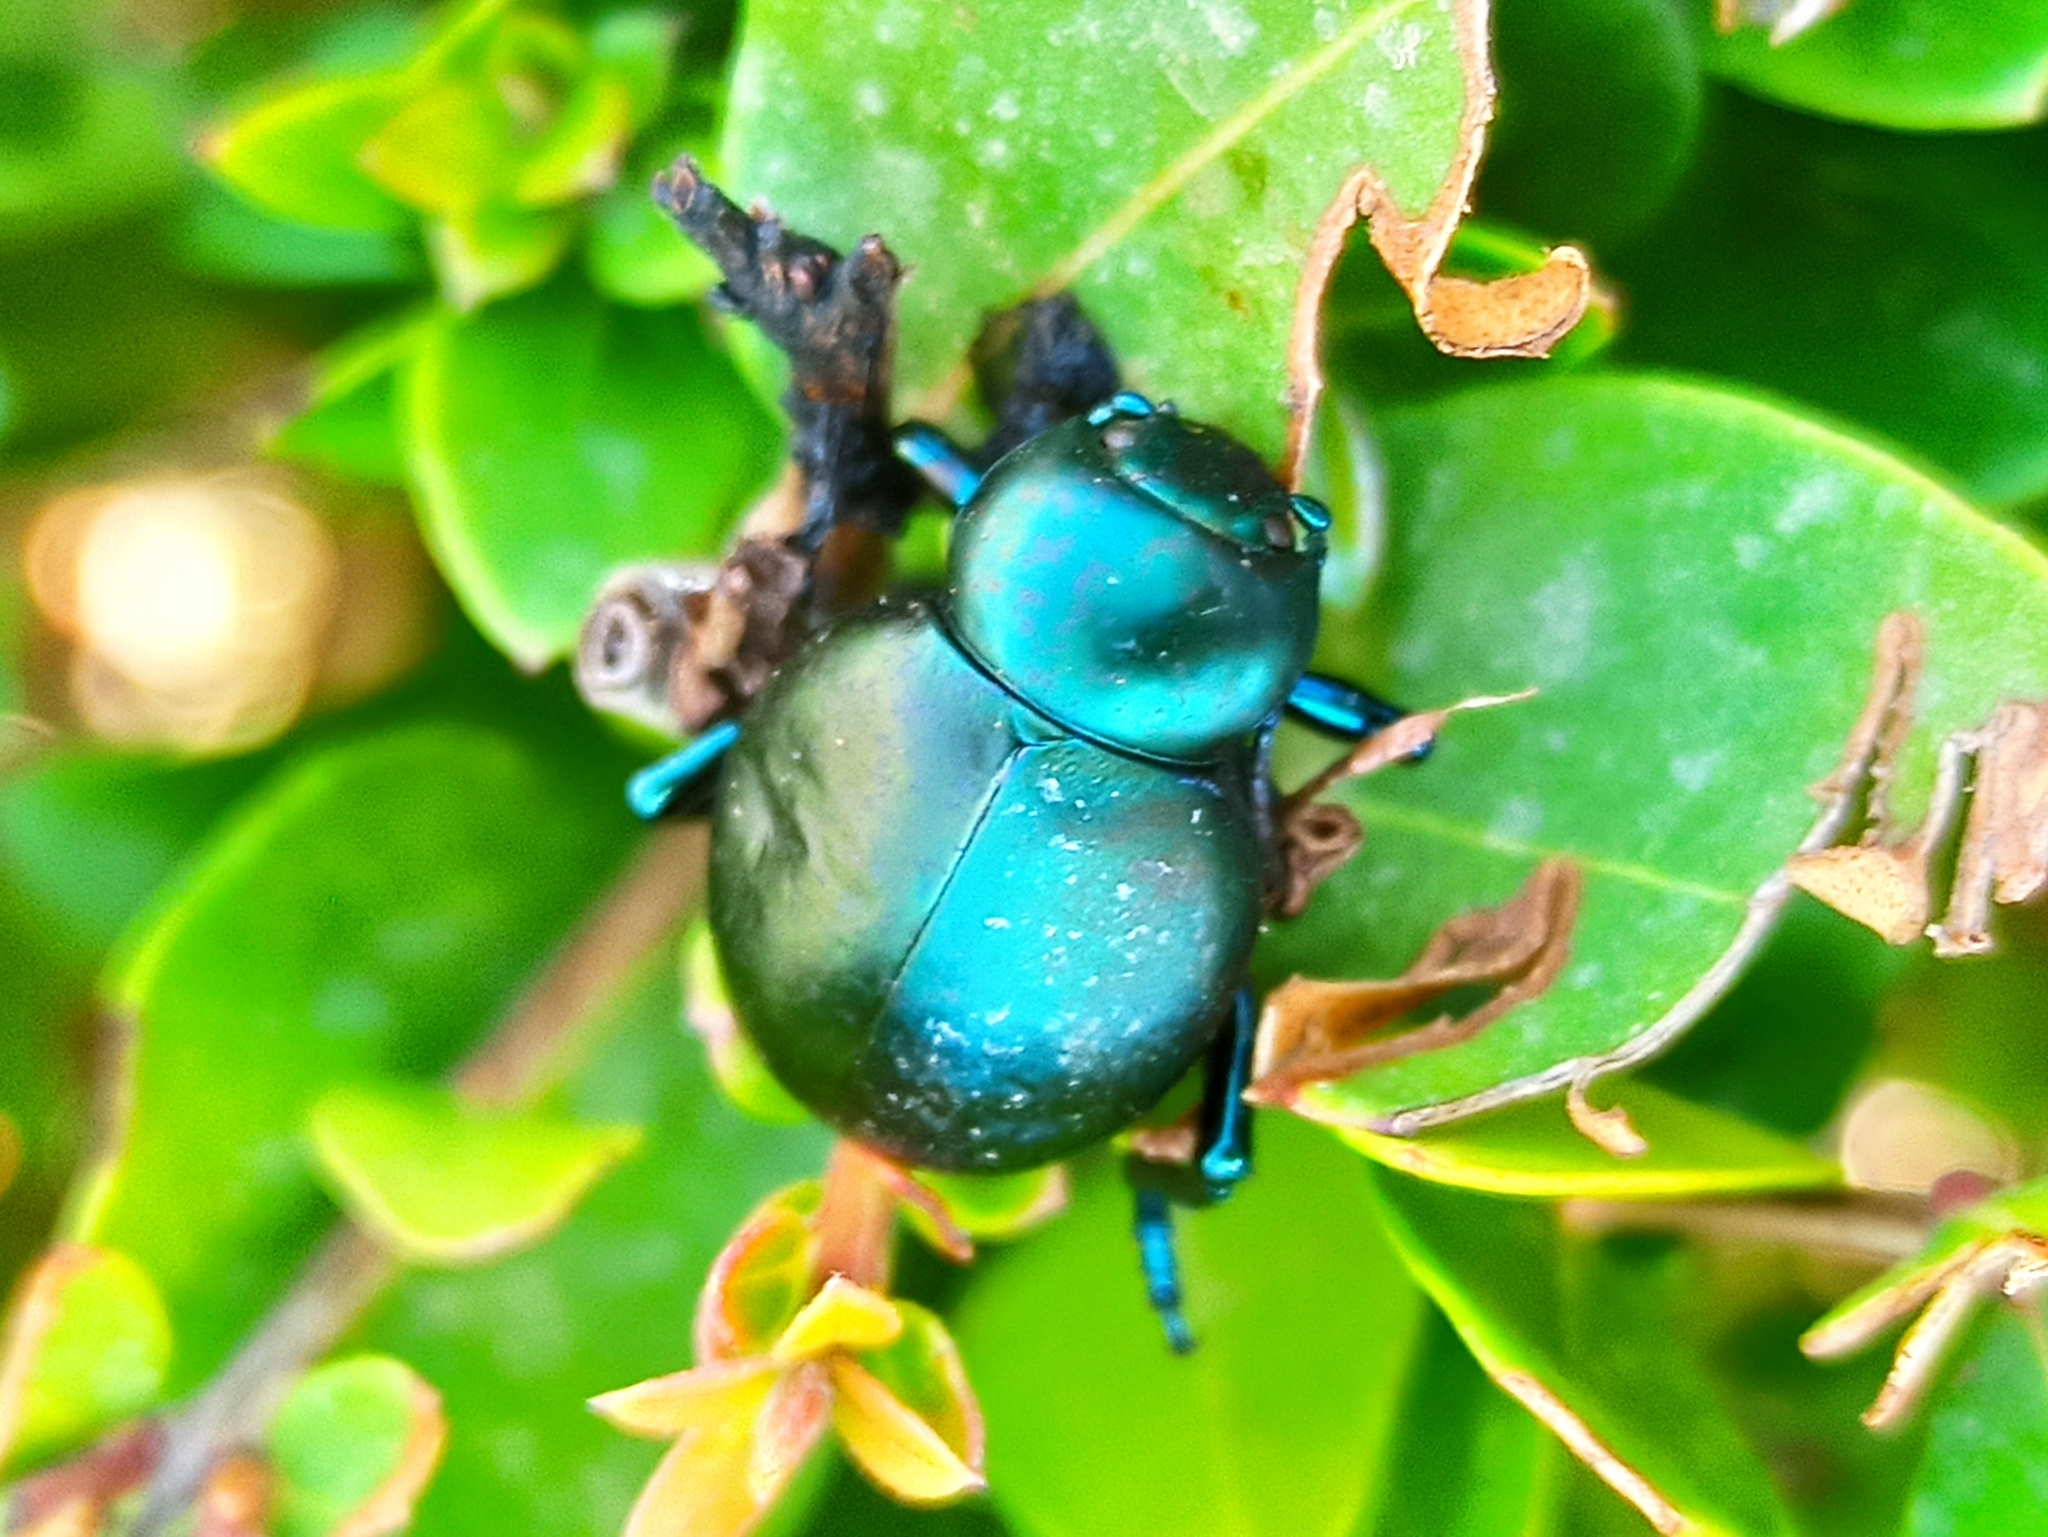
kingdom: Animalia
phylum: Arthropoda
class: Insecta
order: Coleoptera
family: Chrysomelidae
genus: Timarcha
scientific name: Timarcha balearica
